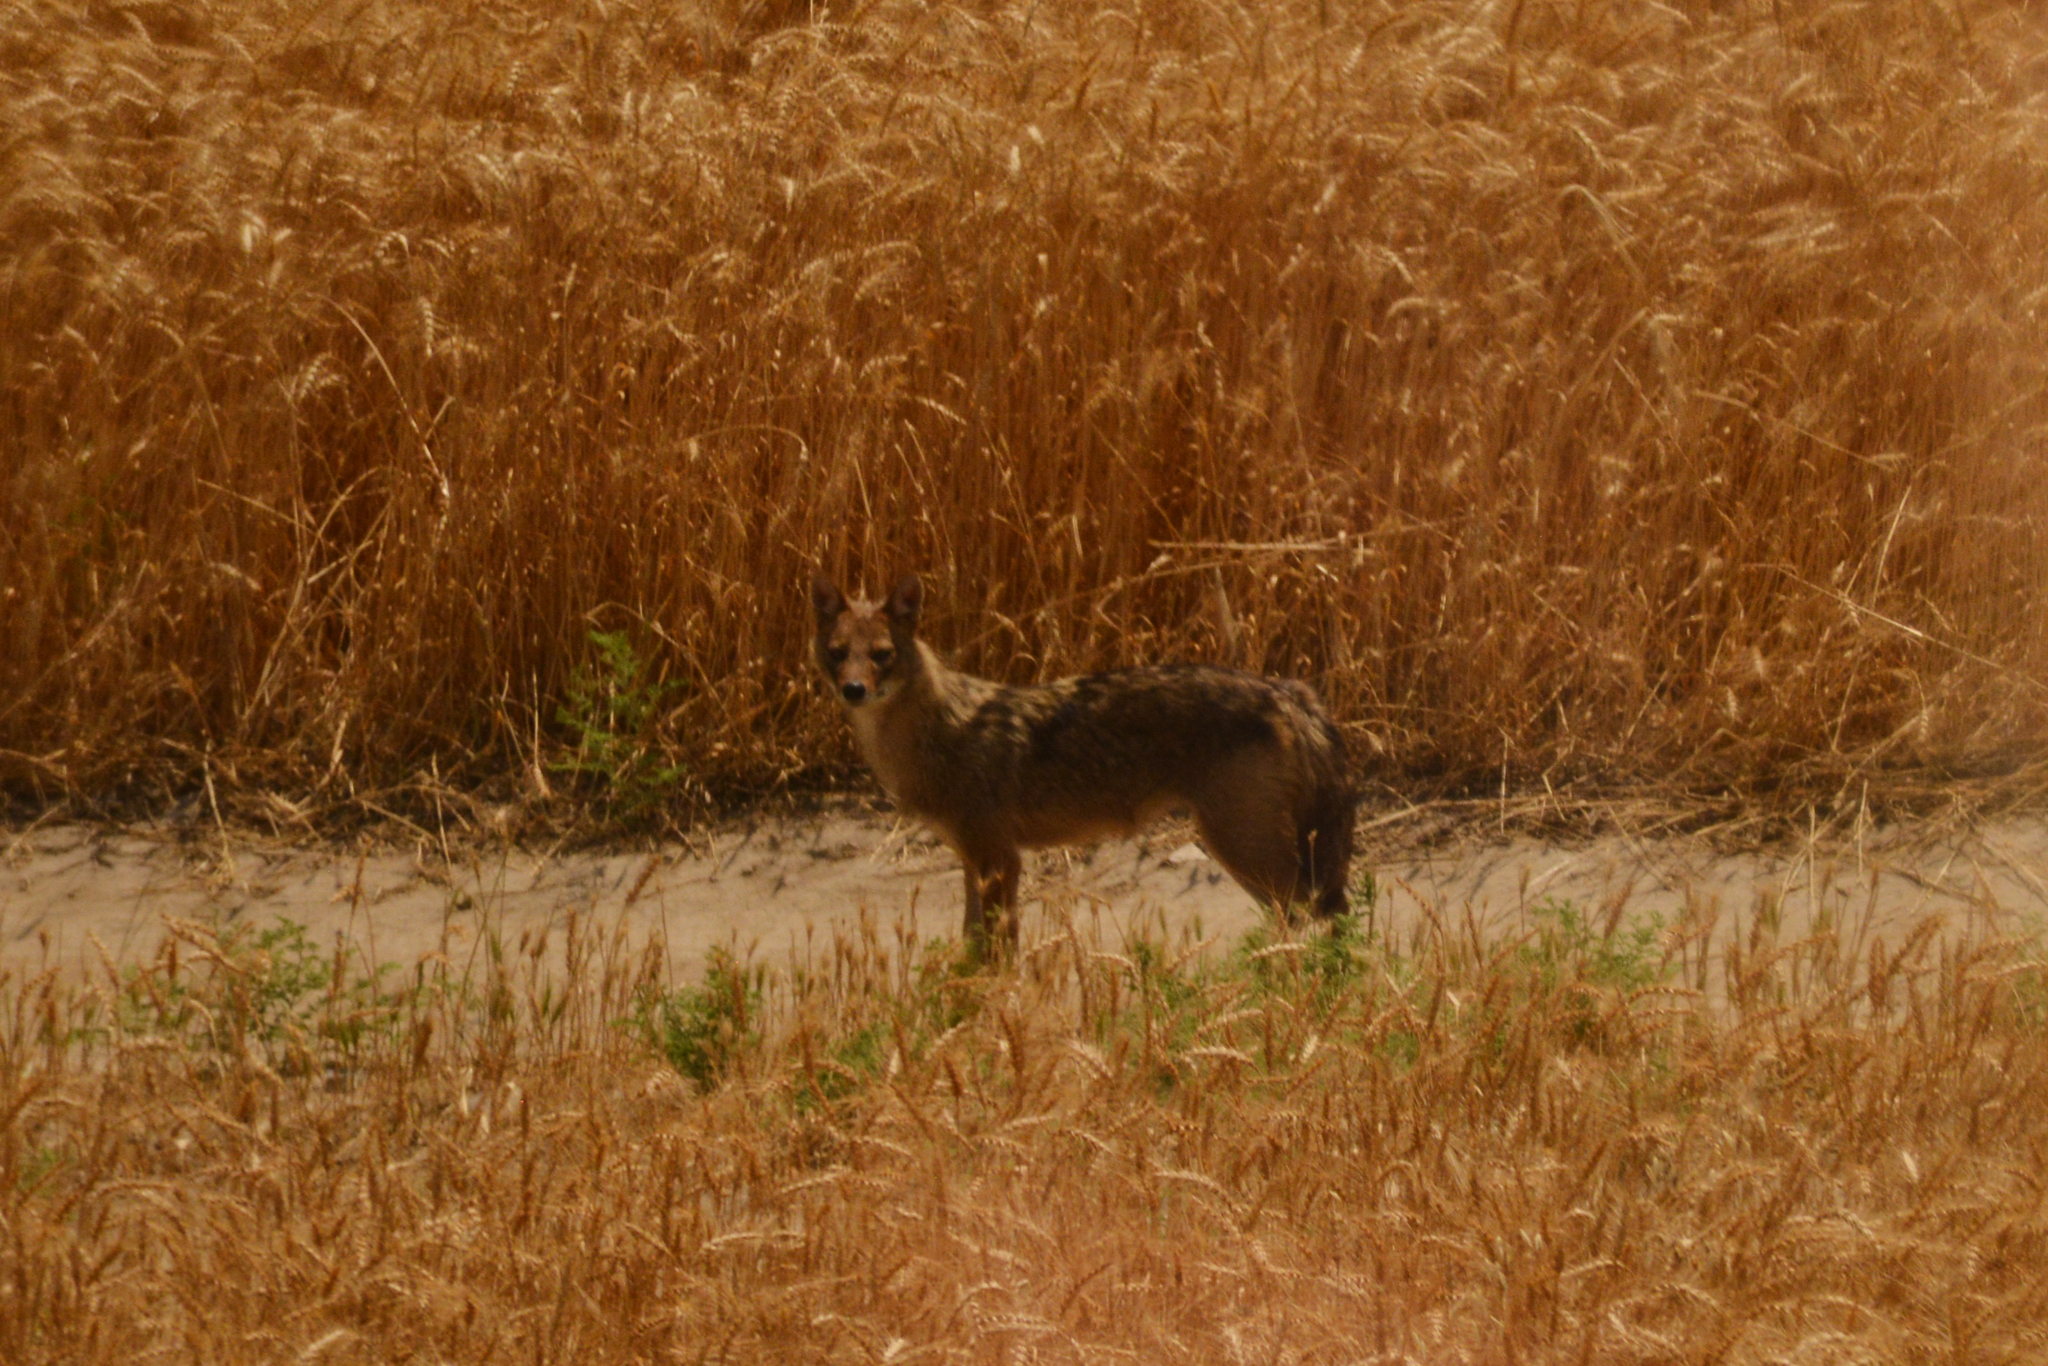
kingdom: Animalia
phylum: Chordata
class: Mammalia
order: Carnivora
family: Canidae
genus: Canis
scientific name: Canis aureus
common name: Golden jackal
